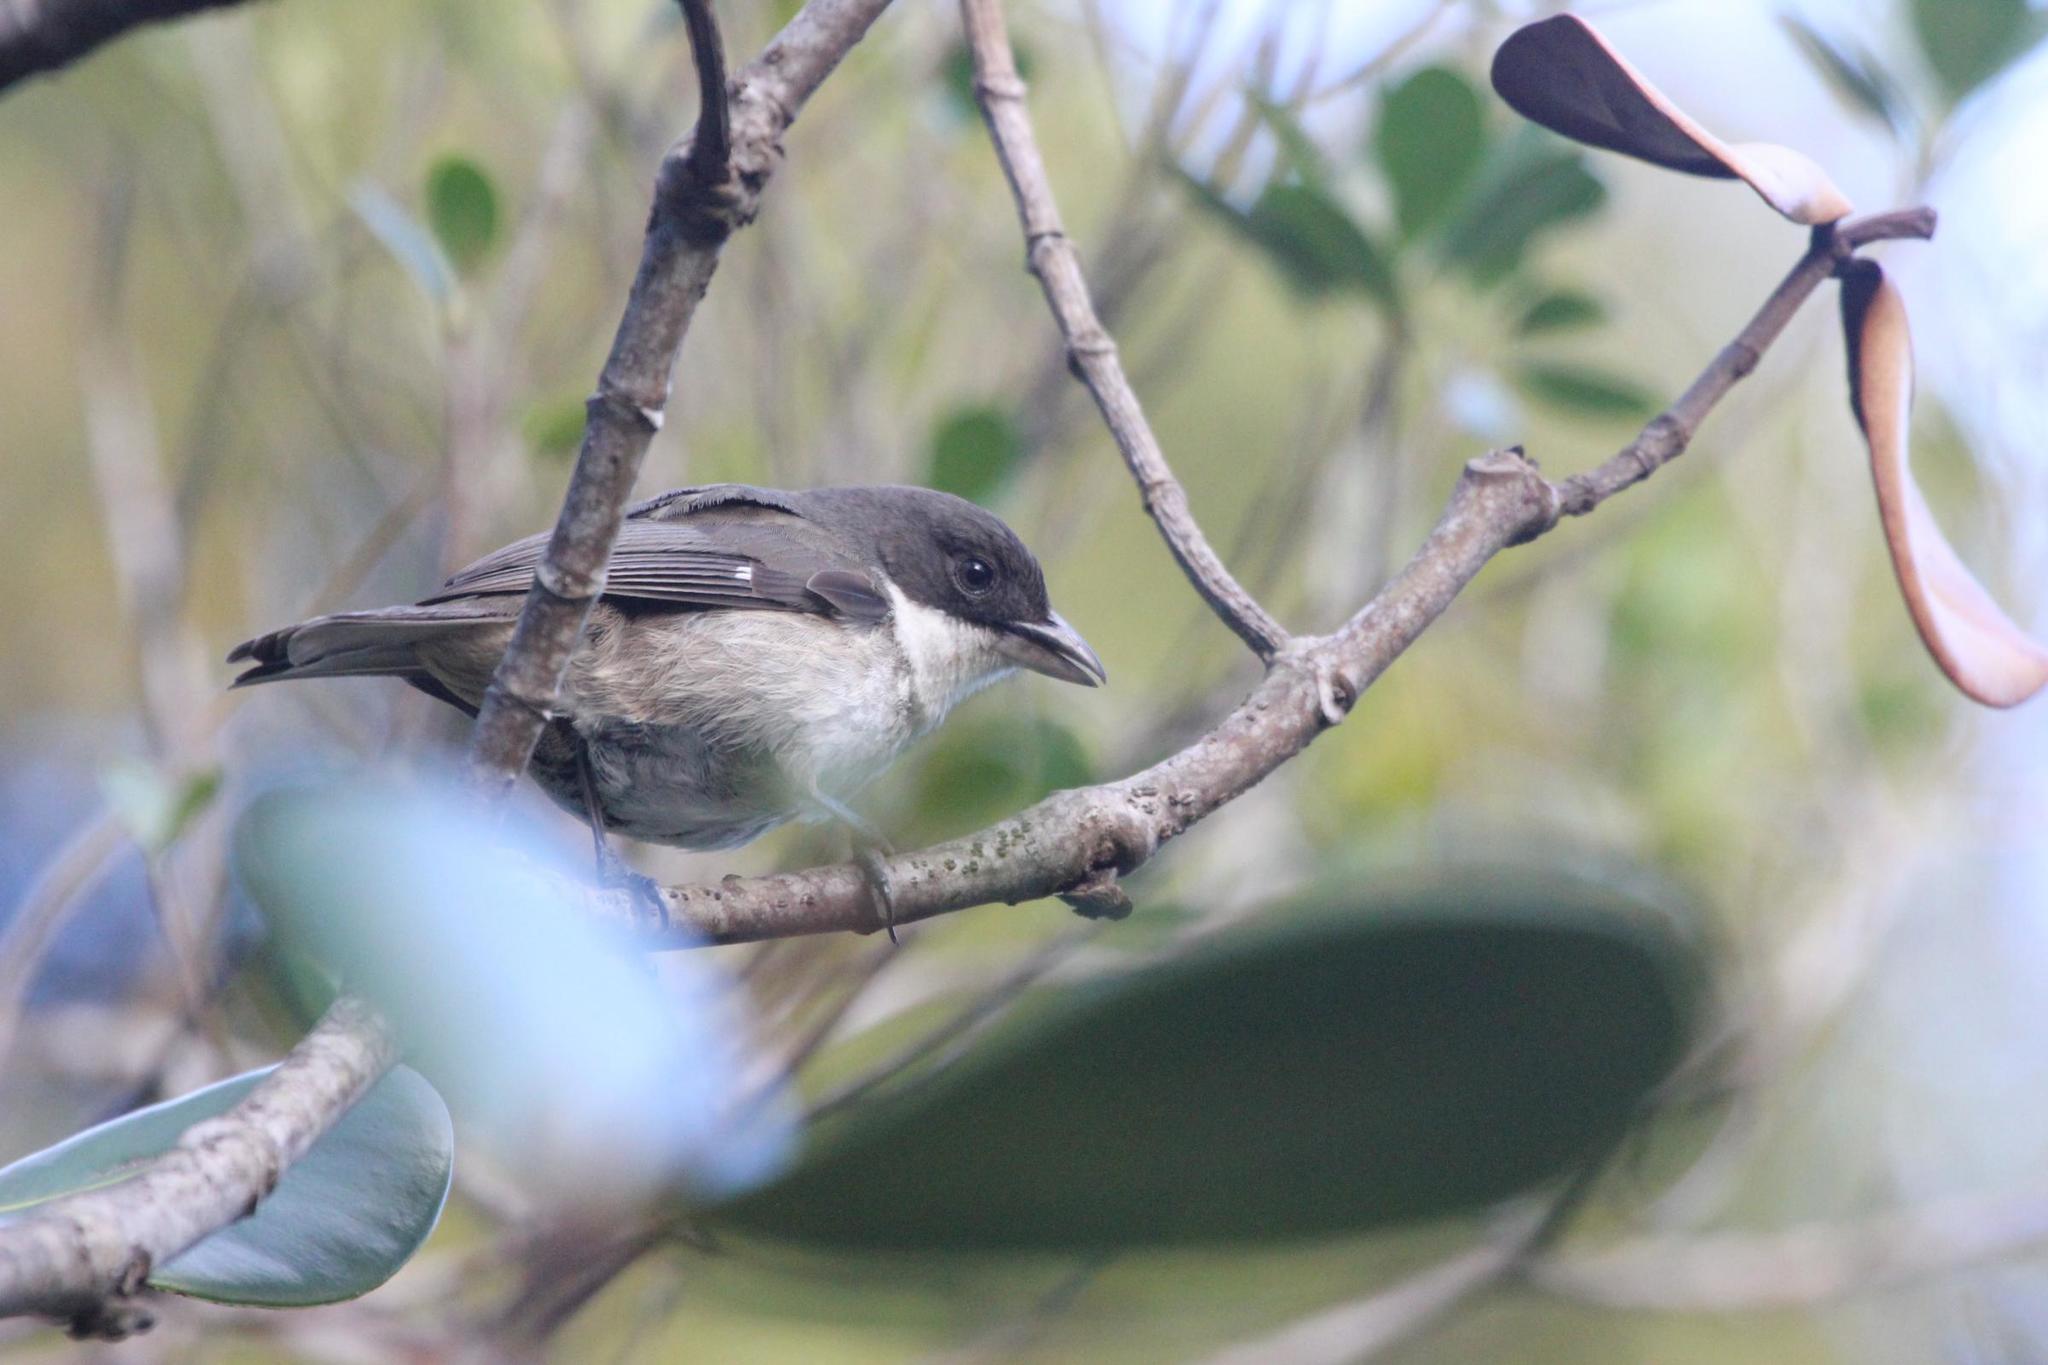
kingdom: Animalia
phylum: Chordata
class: Aves
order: Passeriformes
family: Nesospingidae
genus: Nesospingus
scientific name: Nesospingus speculiferus
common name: Puerto rican tanager
